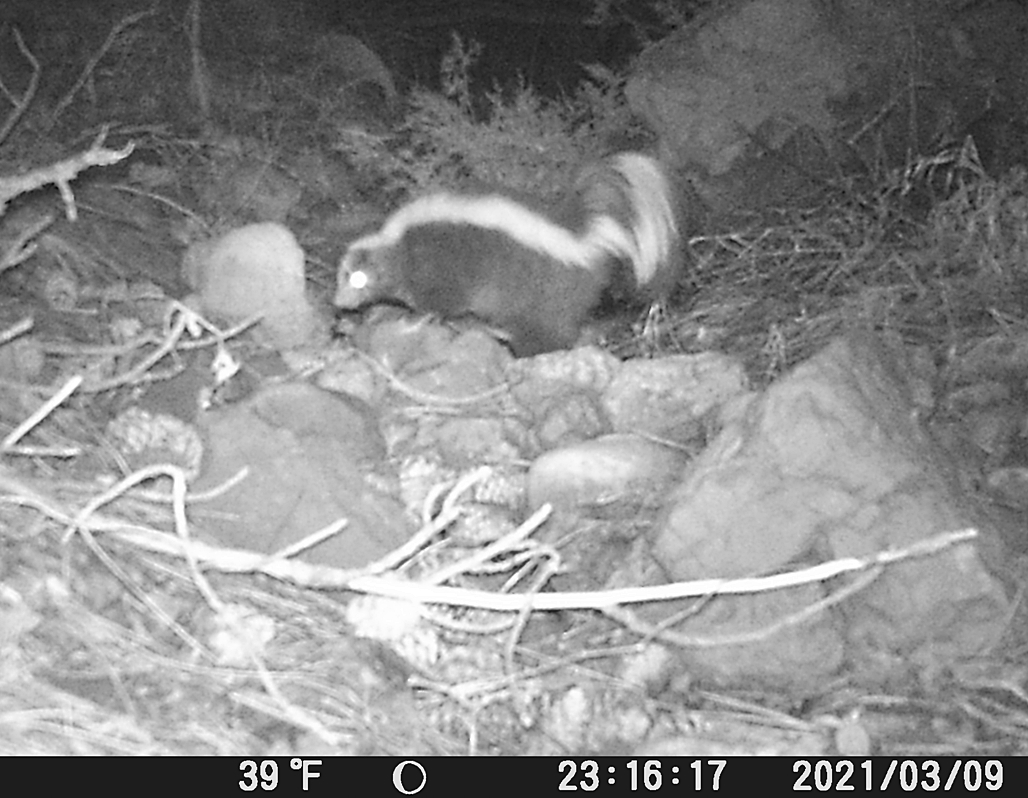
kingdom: Animalia
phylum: Chordata
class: Mammalia
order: Carnivora
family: Mephitidae
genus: Mephitis
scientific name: Mephitis mephitis
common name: Striped skunk
